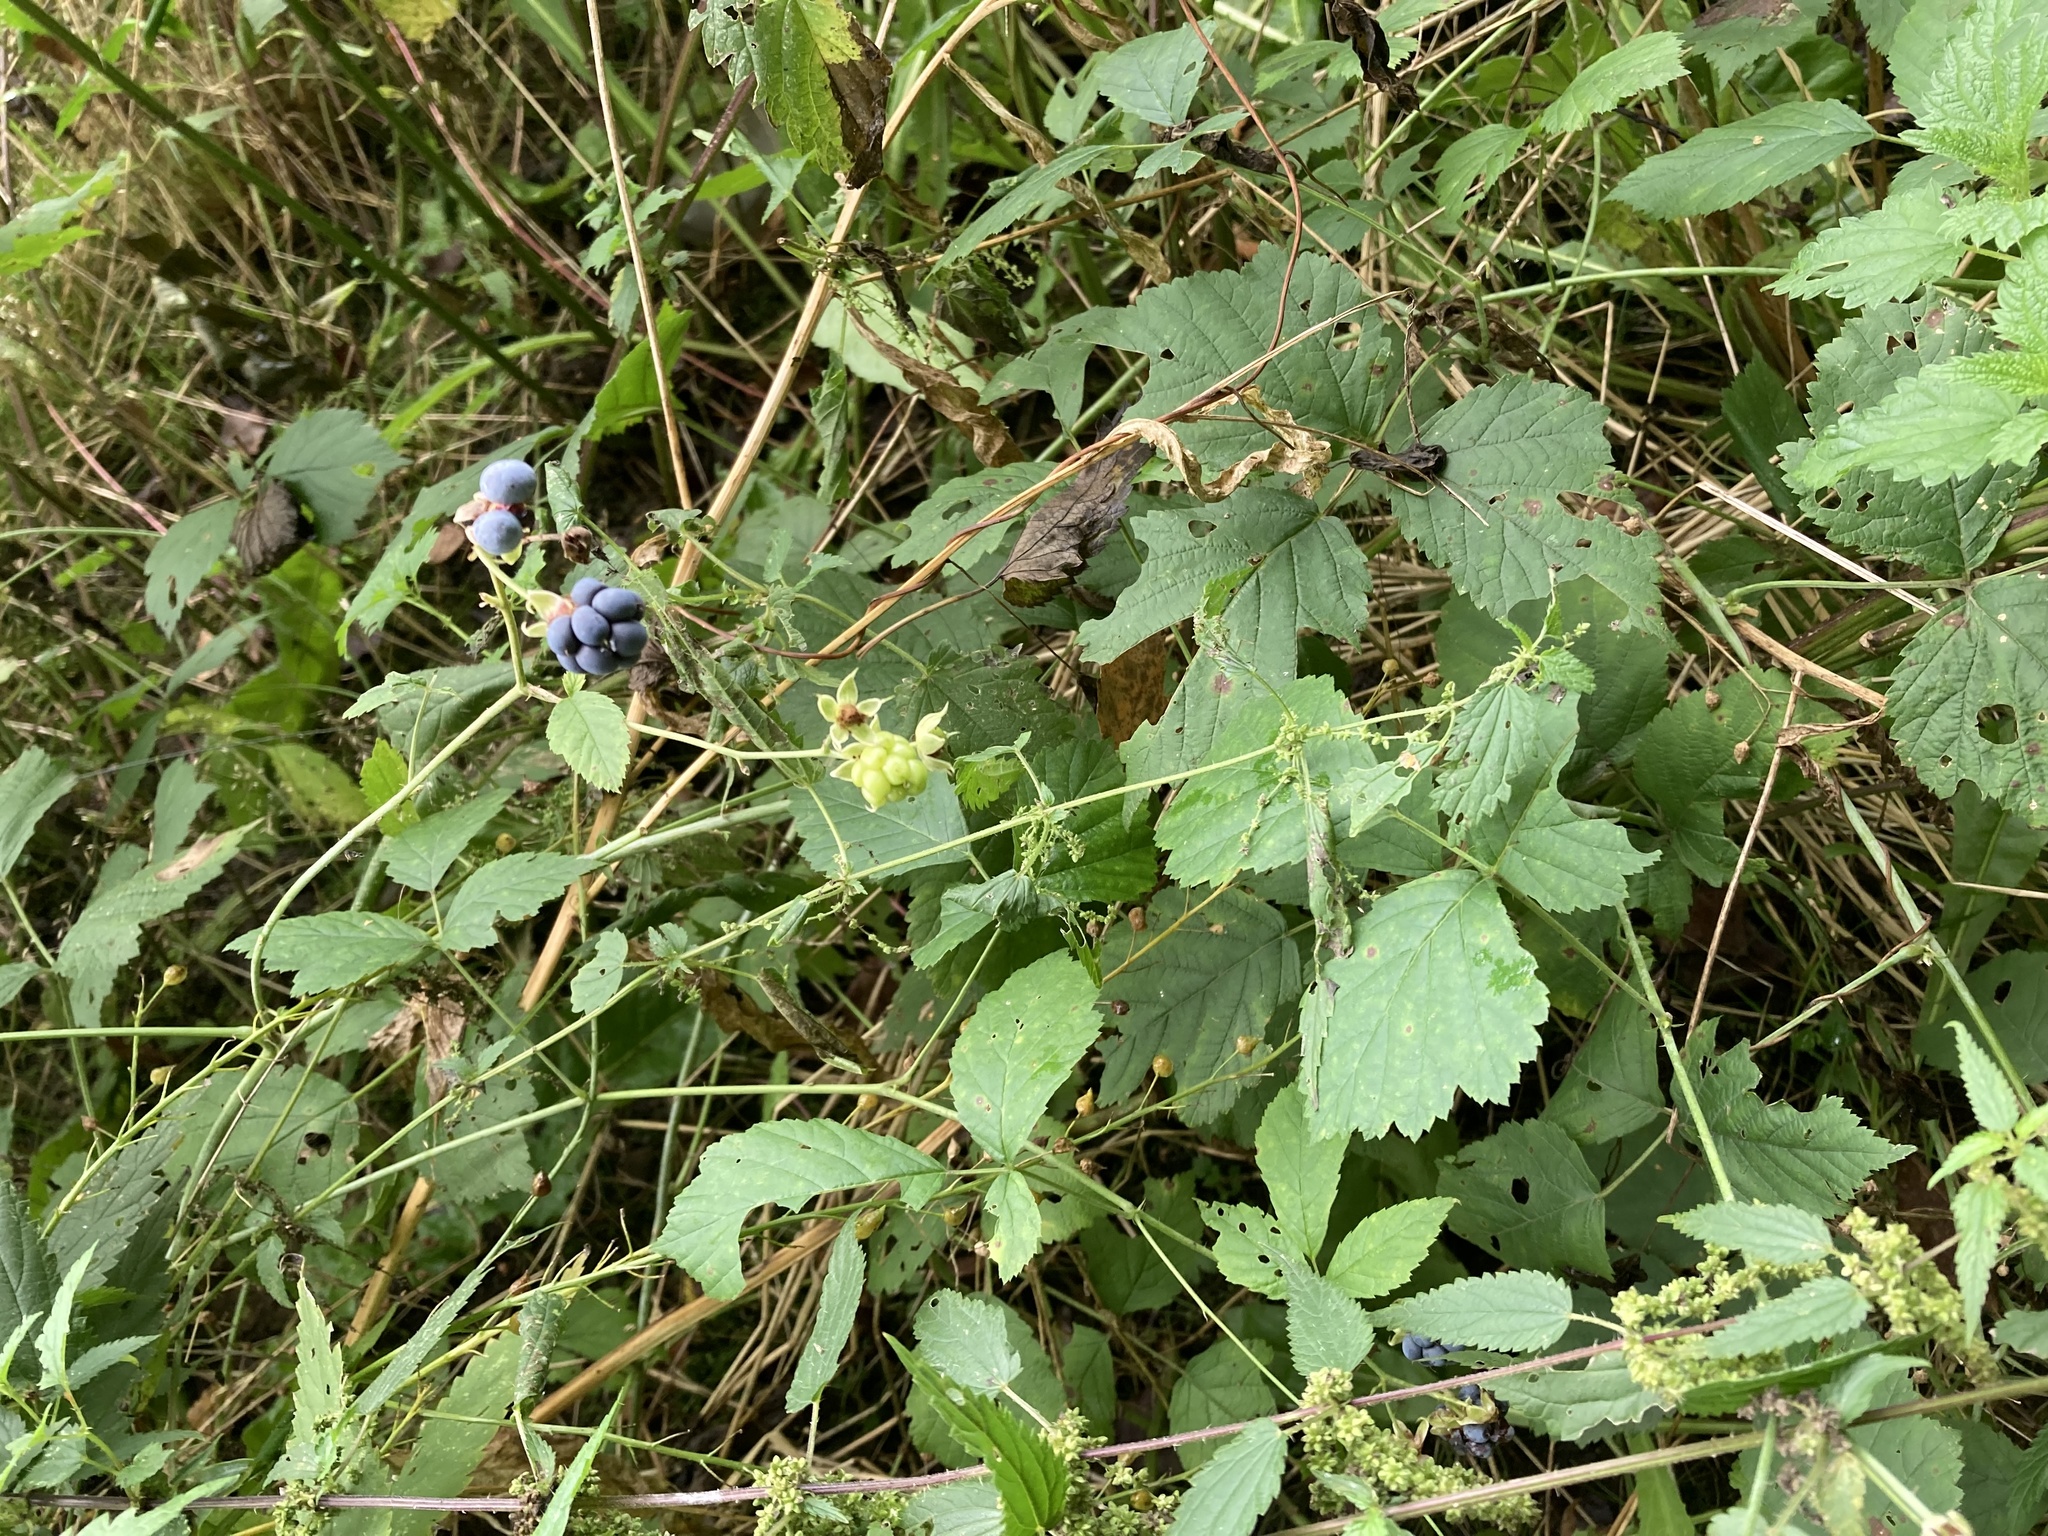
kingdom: Plantae
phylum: Tracheophyta
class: Magnoliopsida
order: Rosales
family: Rosaceae
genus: Rubus
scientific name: Rubus caesius
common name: Dewberry
